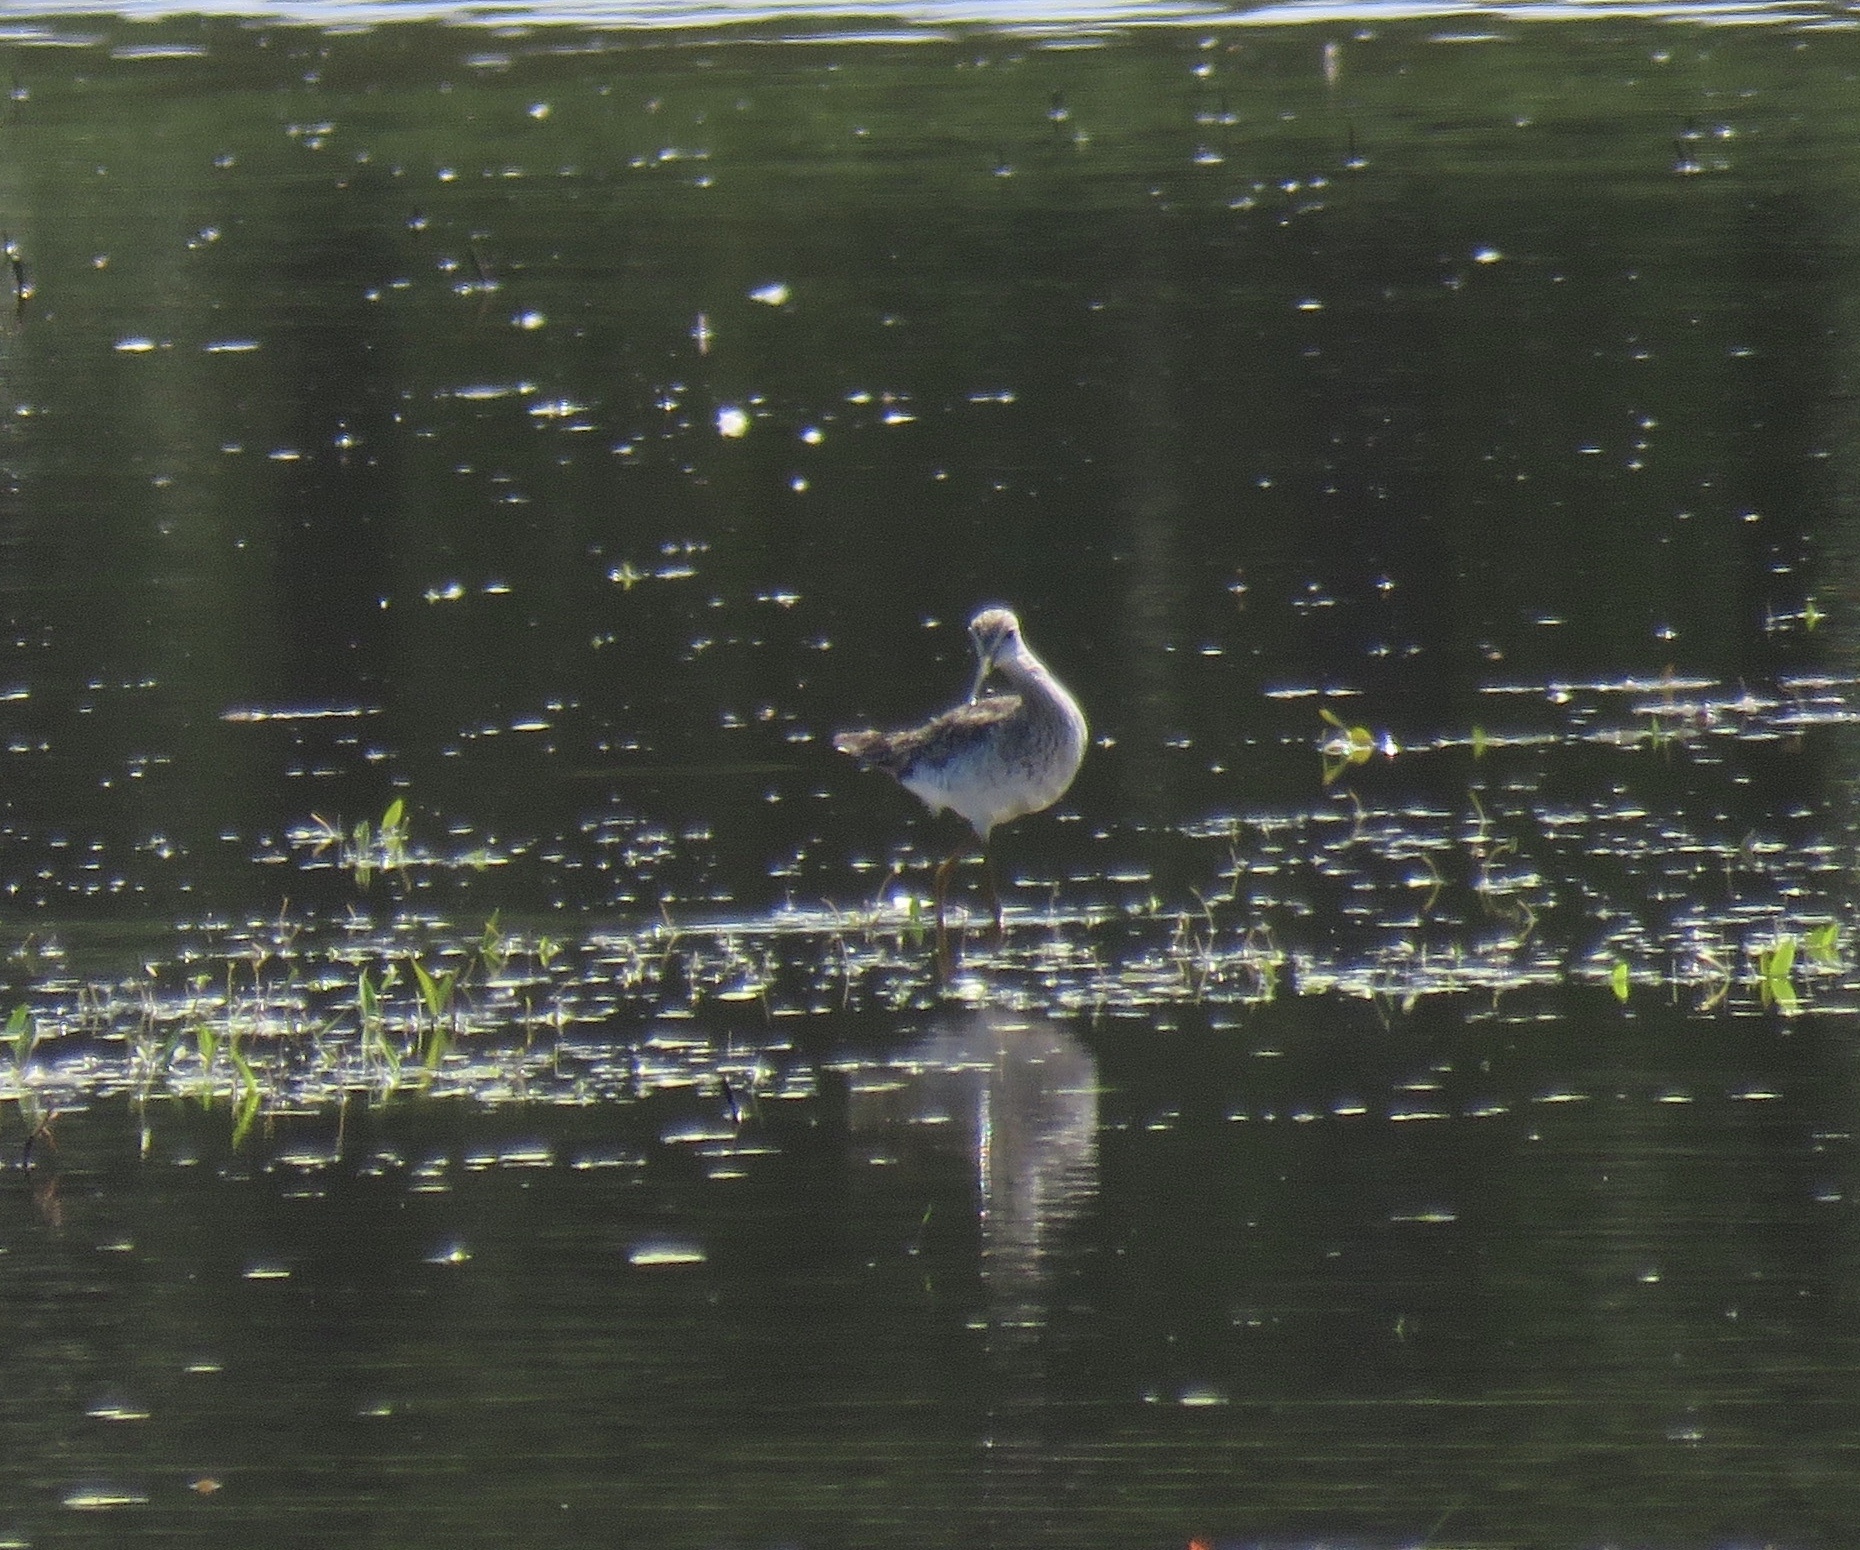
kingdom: Animalia
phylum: Chordata
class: Aves
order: Charadriiformes
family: Scolopacidae
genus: Tringa
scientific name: Tringa melanoleuca
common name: Greater yellowlegs
